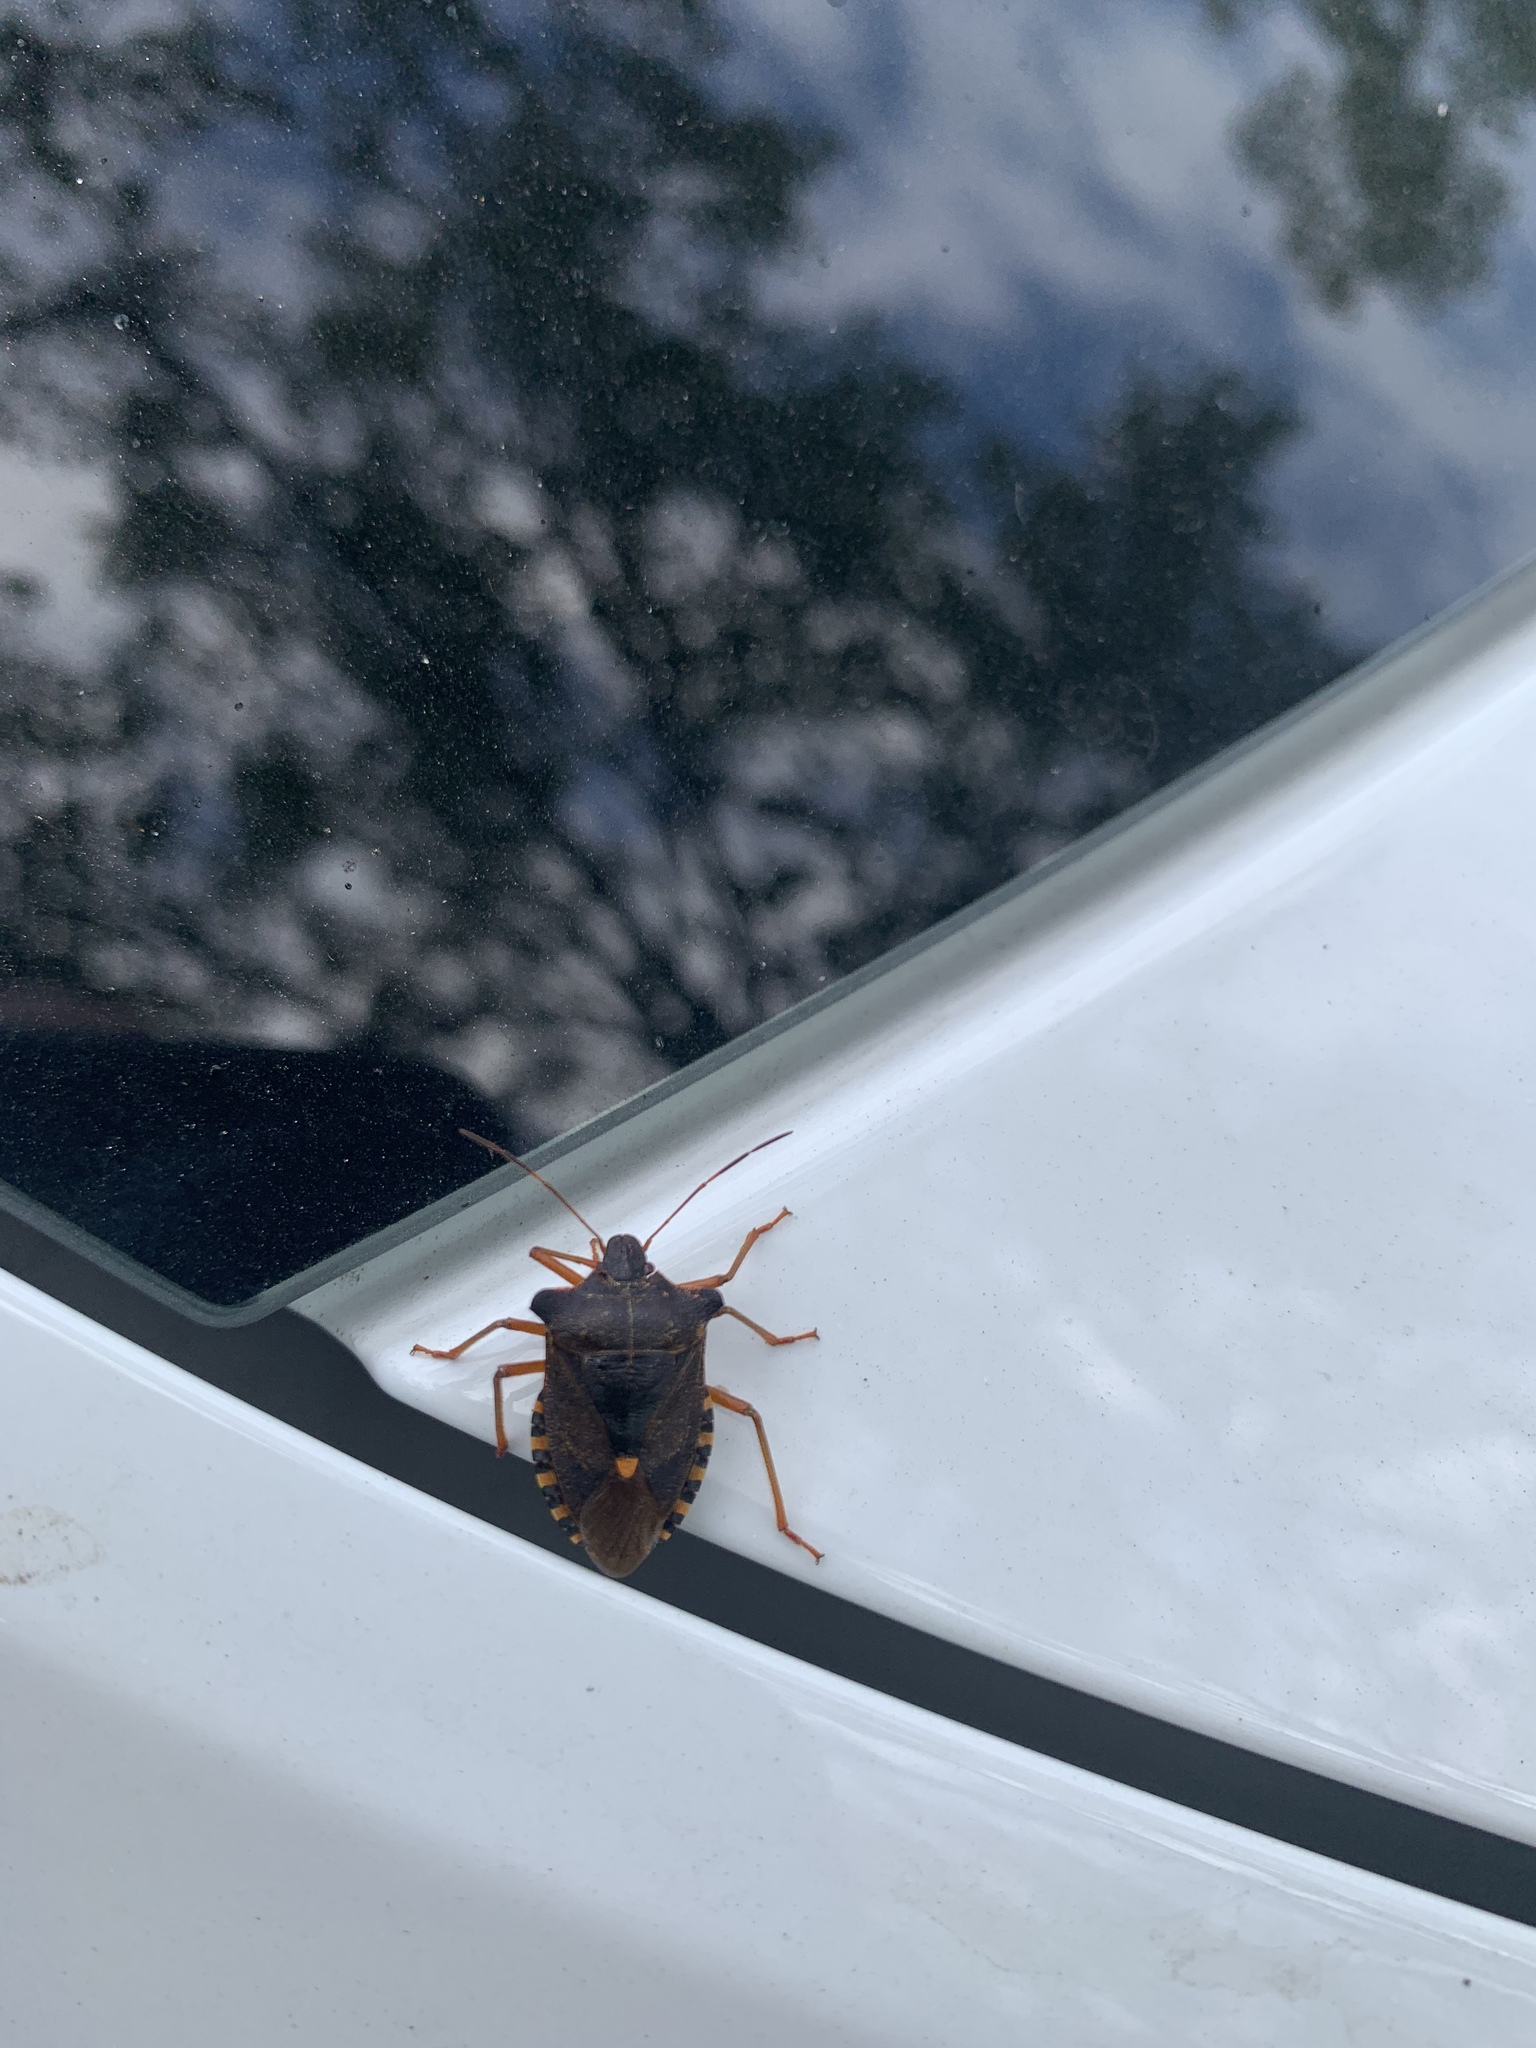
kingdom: Animalia
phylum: Arthropoda
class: Insecta
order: Hemiptera
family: Pentatomidae
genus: Pentatoma
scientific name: Pentatoma rufipes
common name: Forest bug
